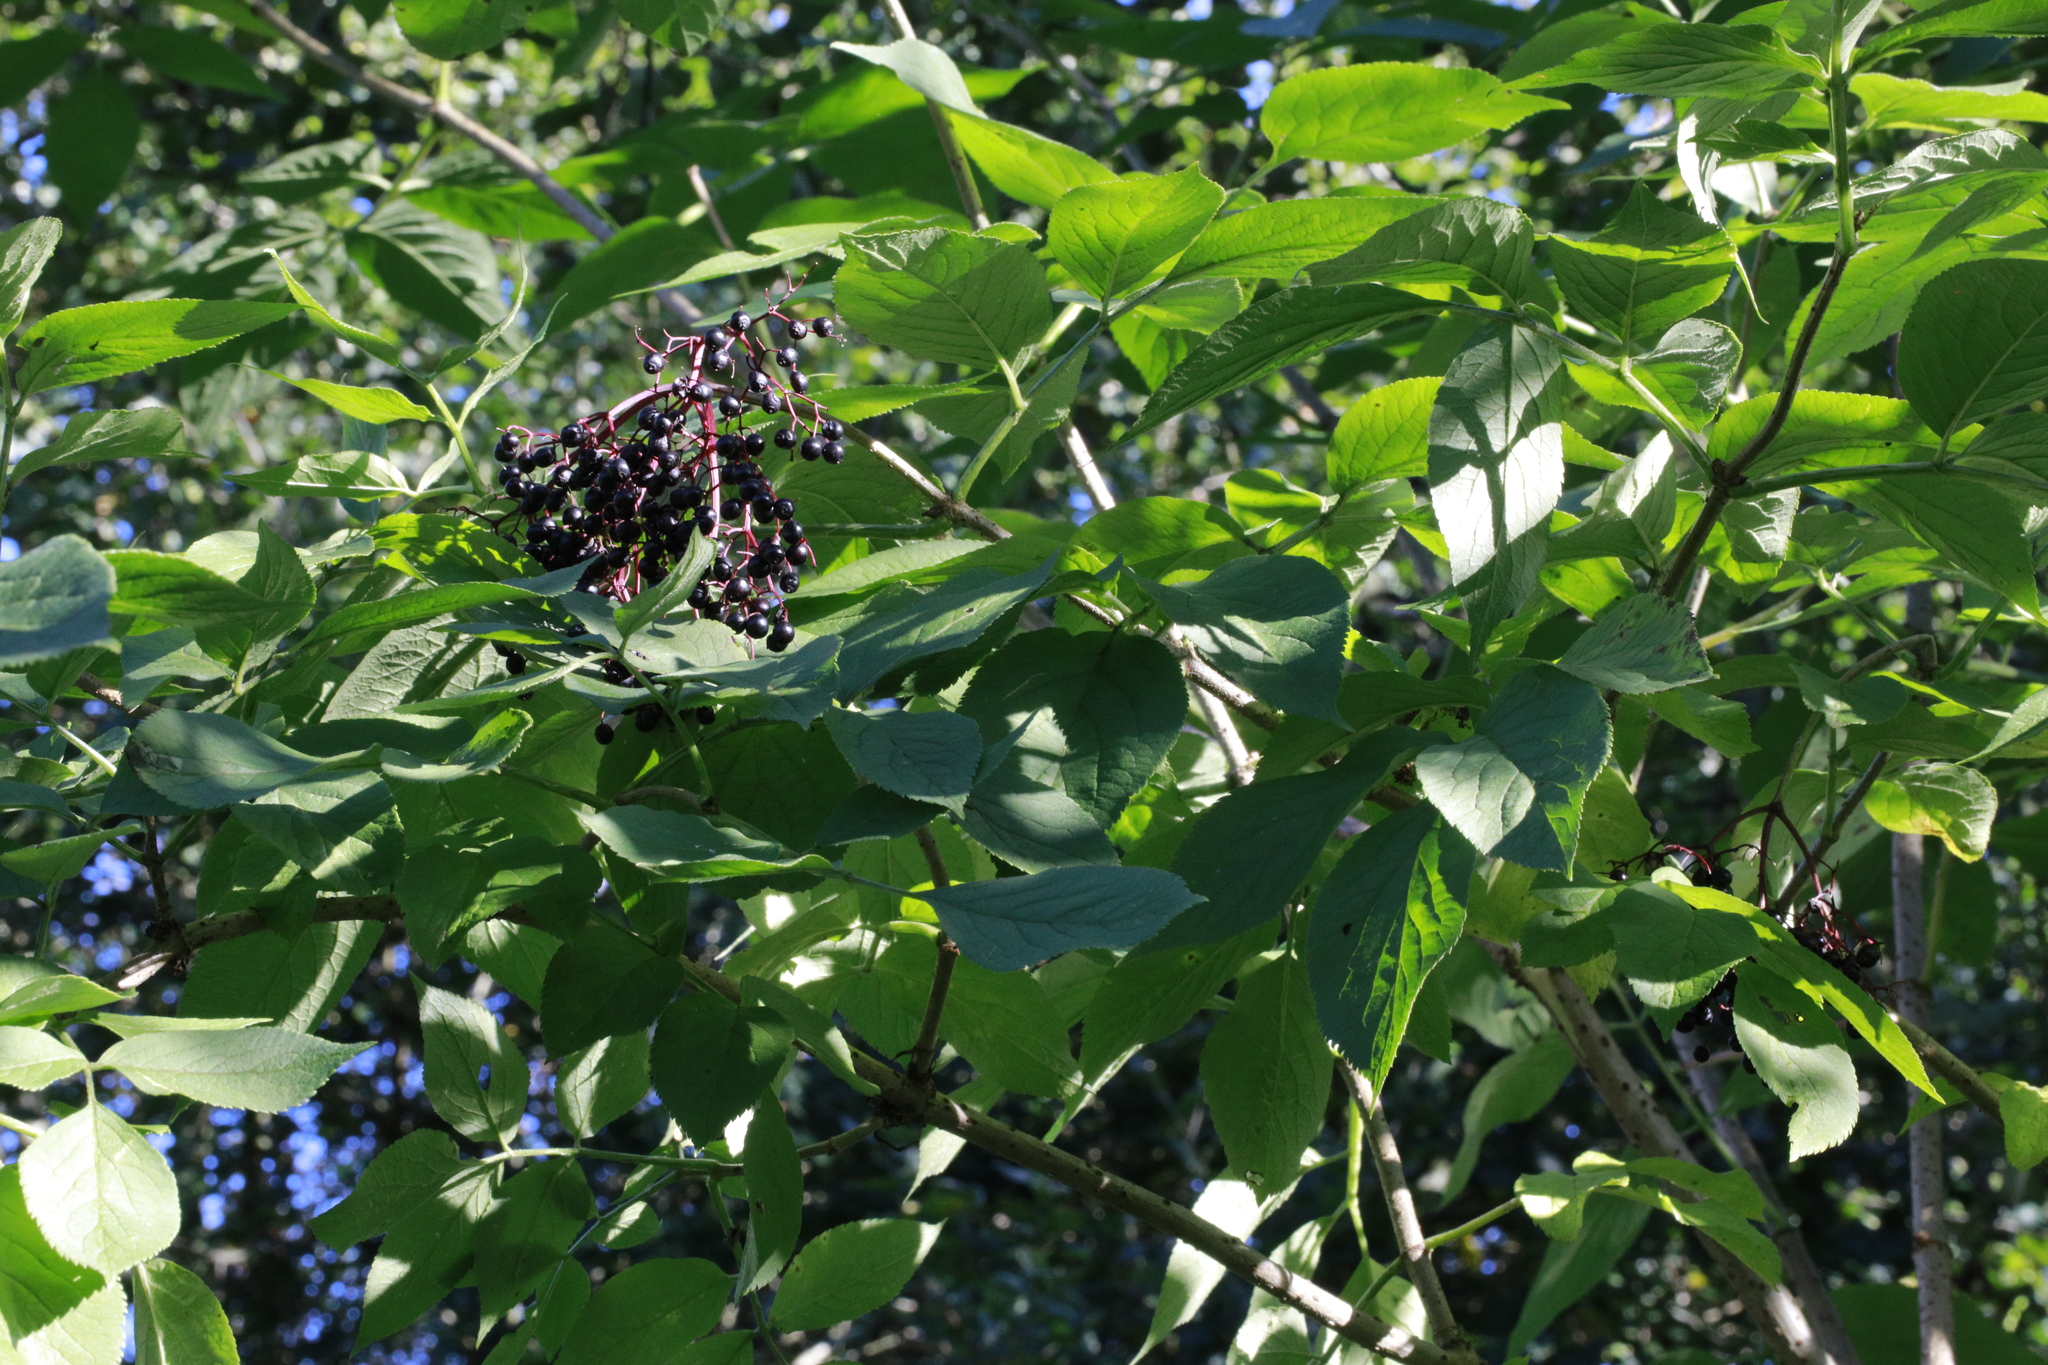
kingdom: Plantae
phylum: Tracheophyta
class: Magnoliopsida
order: Dipsacales
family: Viburnaceae
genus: Sambucus
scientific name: Sambucus nigra
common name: Elder
